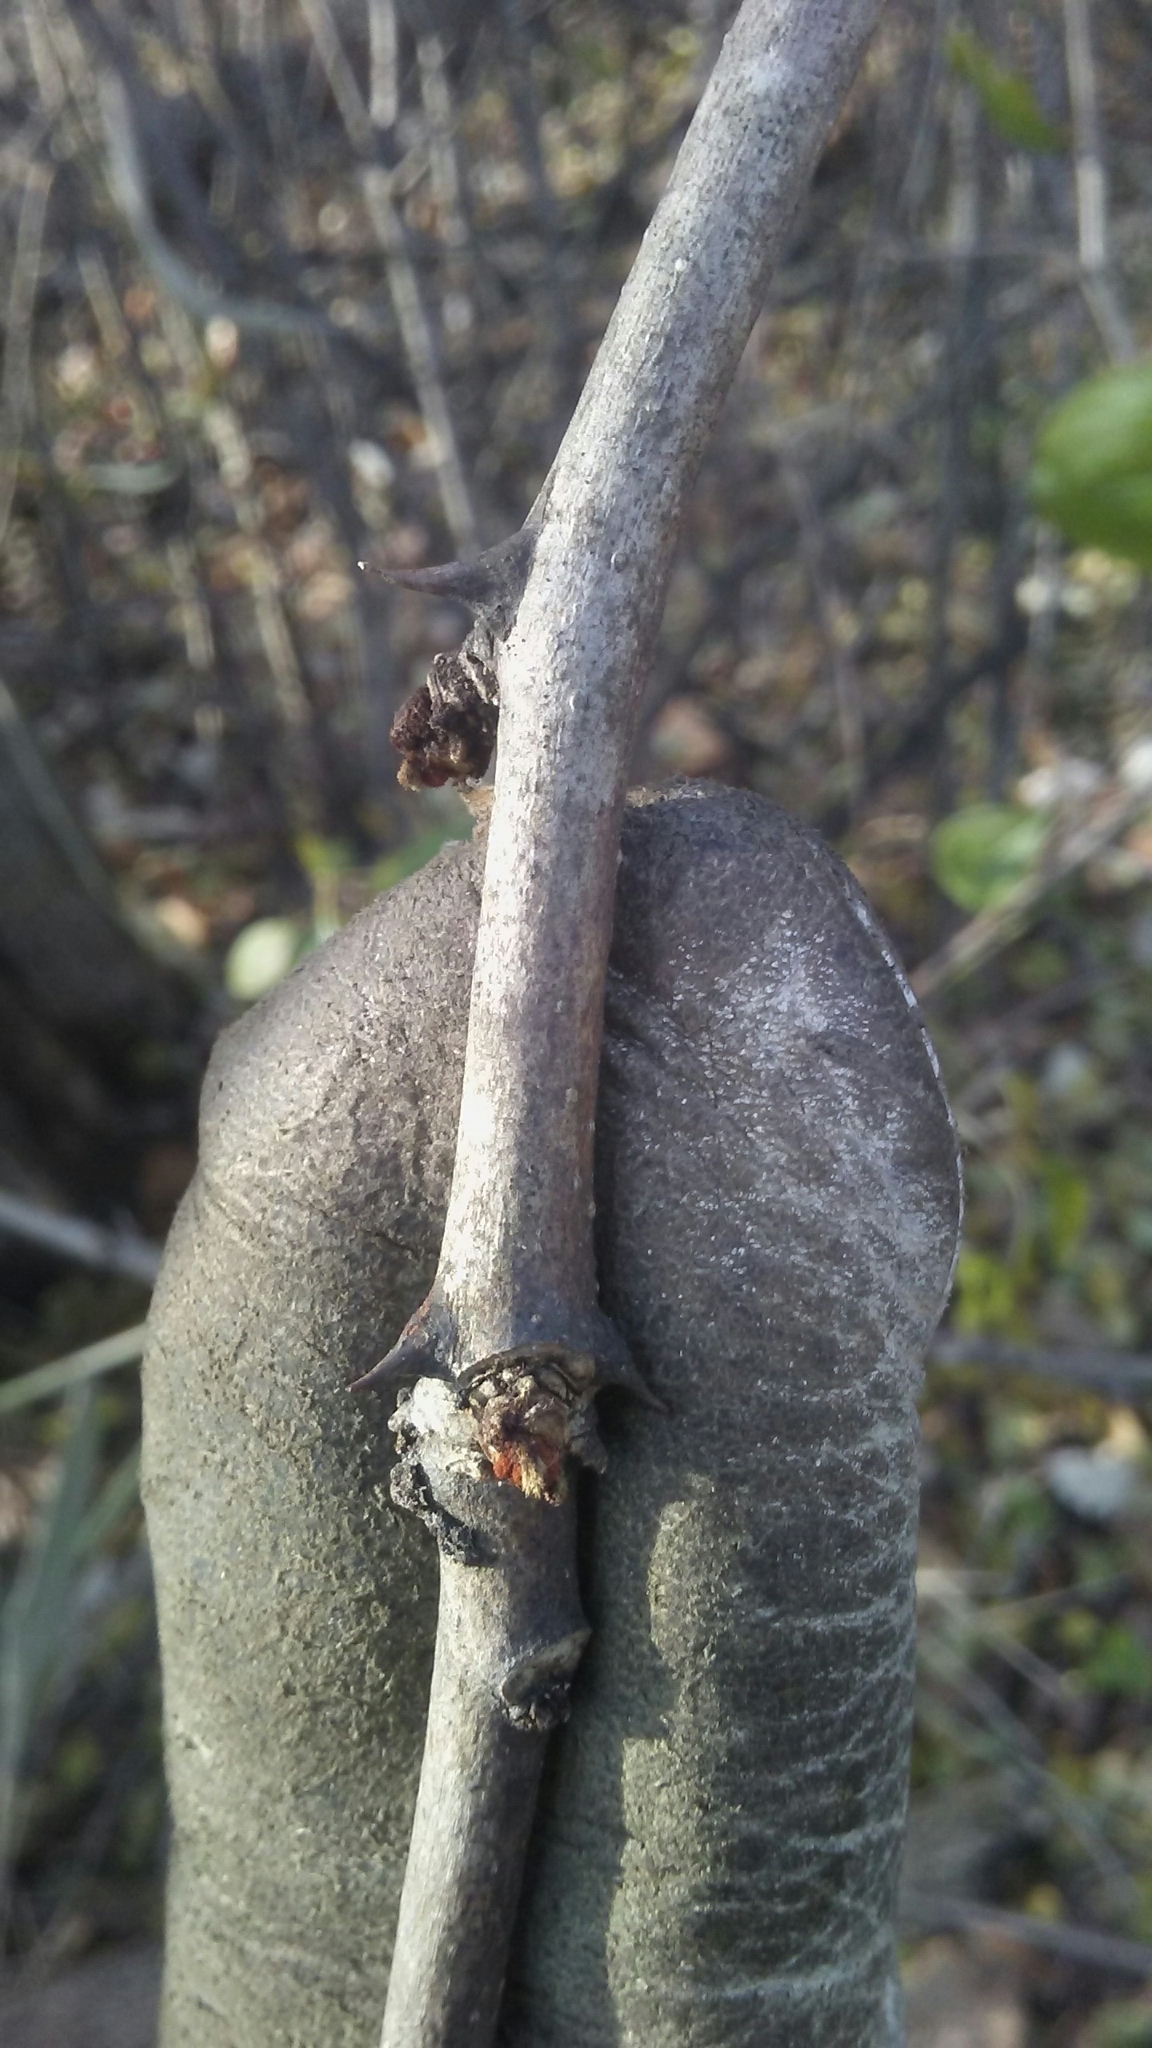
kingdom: Plantae
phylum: Tracheophyta
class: Magnoliopsida
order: Sapindales
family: Rutaceae
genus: Zanthoxylum
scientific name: Zanthoxylum americanum
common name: Northern prickly-ash
